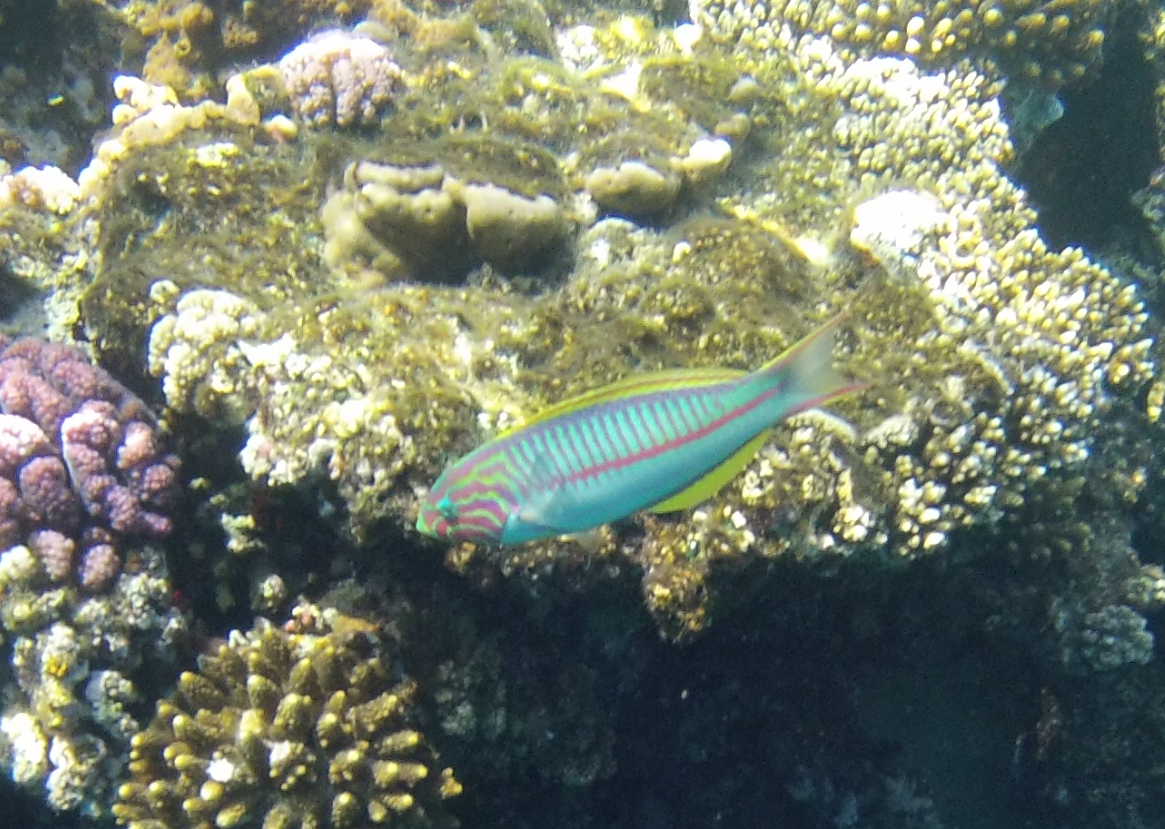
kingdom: Animalia
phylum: Chordata
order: Perciformes
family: Labridae
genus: Thalassoma
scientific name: Thalassoma rueppellii
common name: Klunzinger's wrasse
